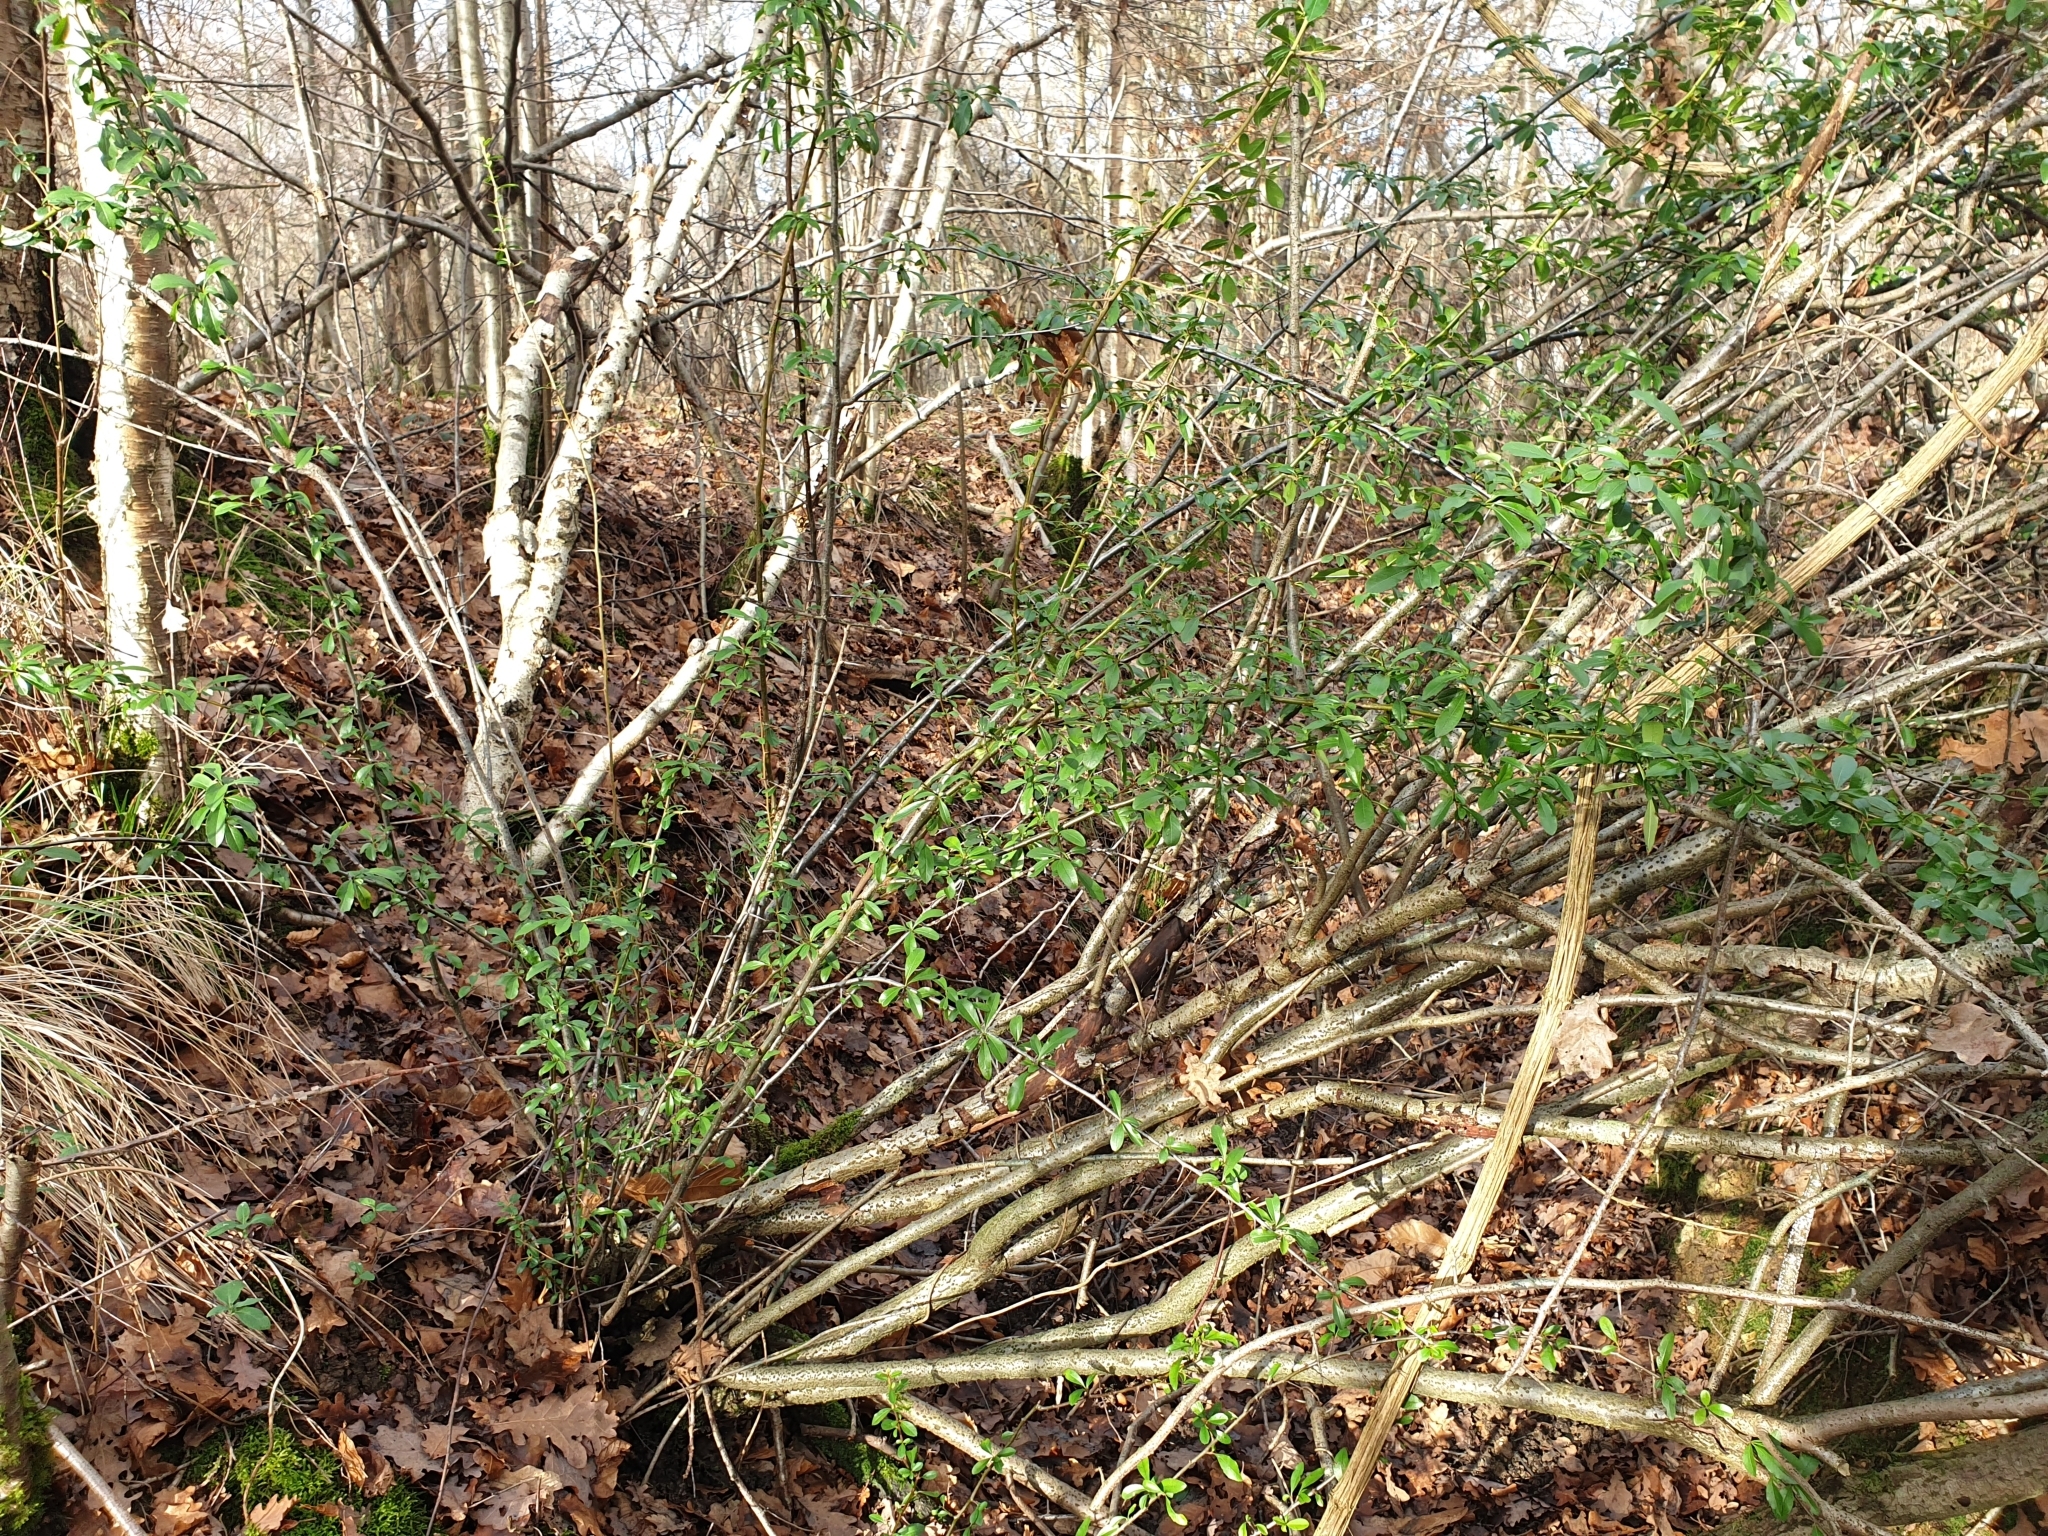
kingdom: Plantae
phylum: Tracheophyta
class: Magnoliopsida
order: Rosales
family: Rosaceae
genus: Pyracantha
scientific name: Pyracantha coccinea
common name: Firethorn
